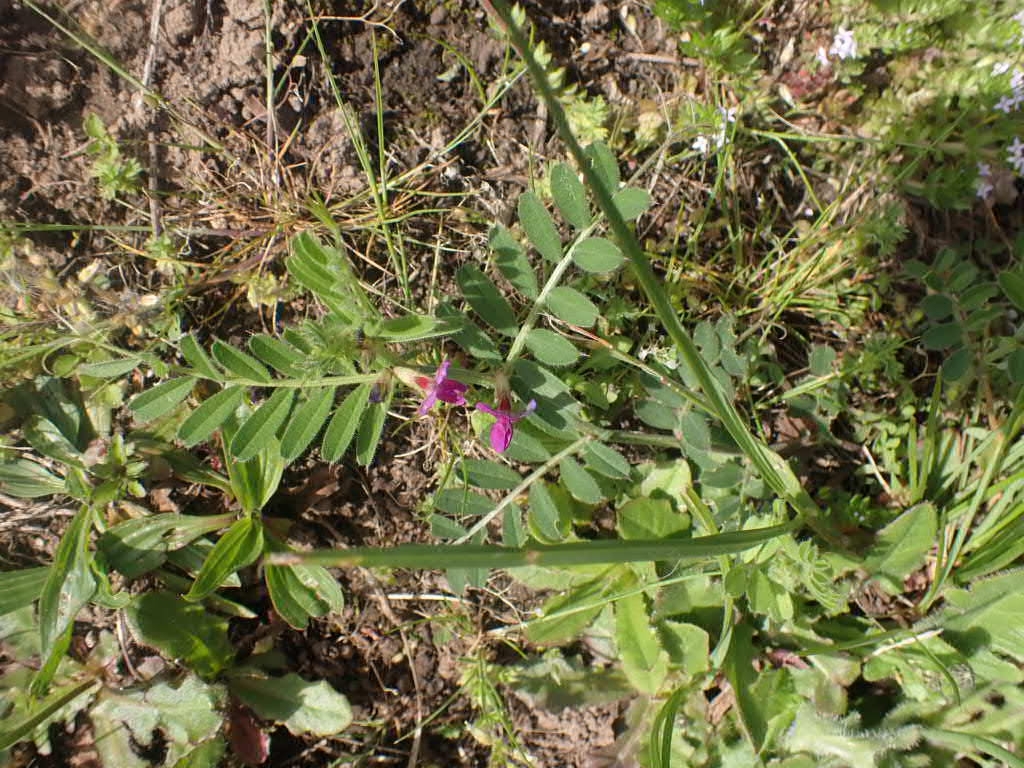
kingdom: Plantae
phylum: Tracheophyta
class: Magnoliopsida
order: Fabales
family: Fabaceae
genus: Vicia
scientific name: Vicia sativa
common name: Garden vetch
